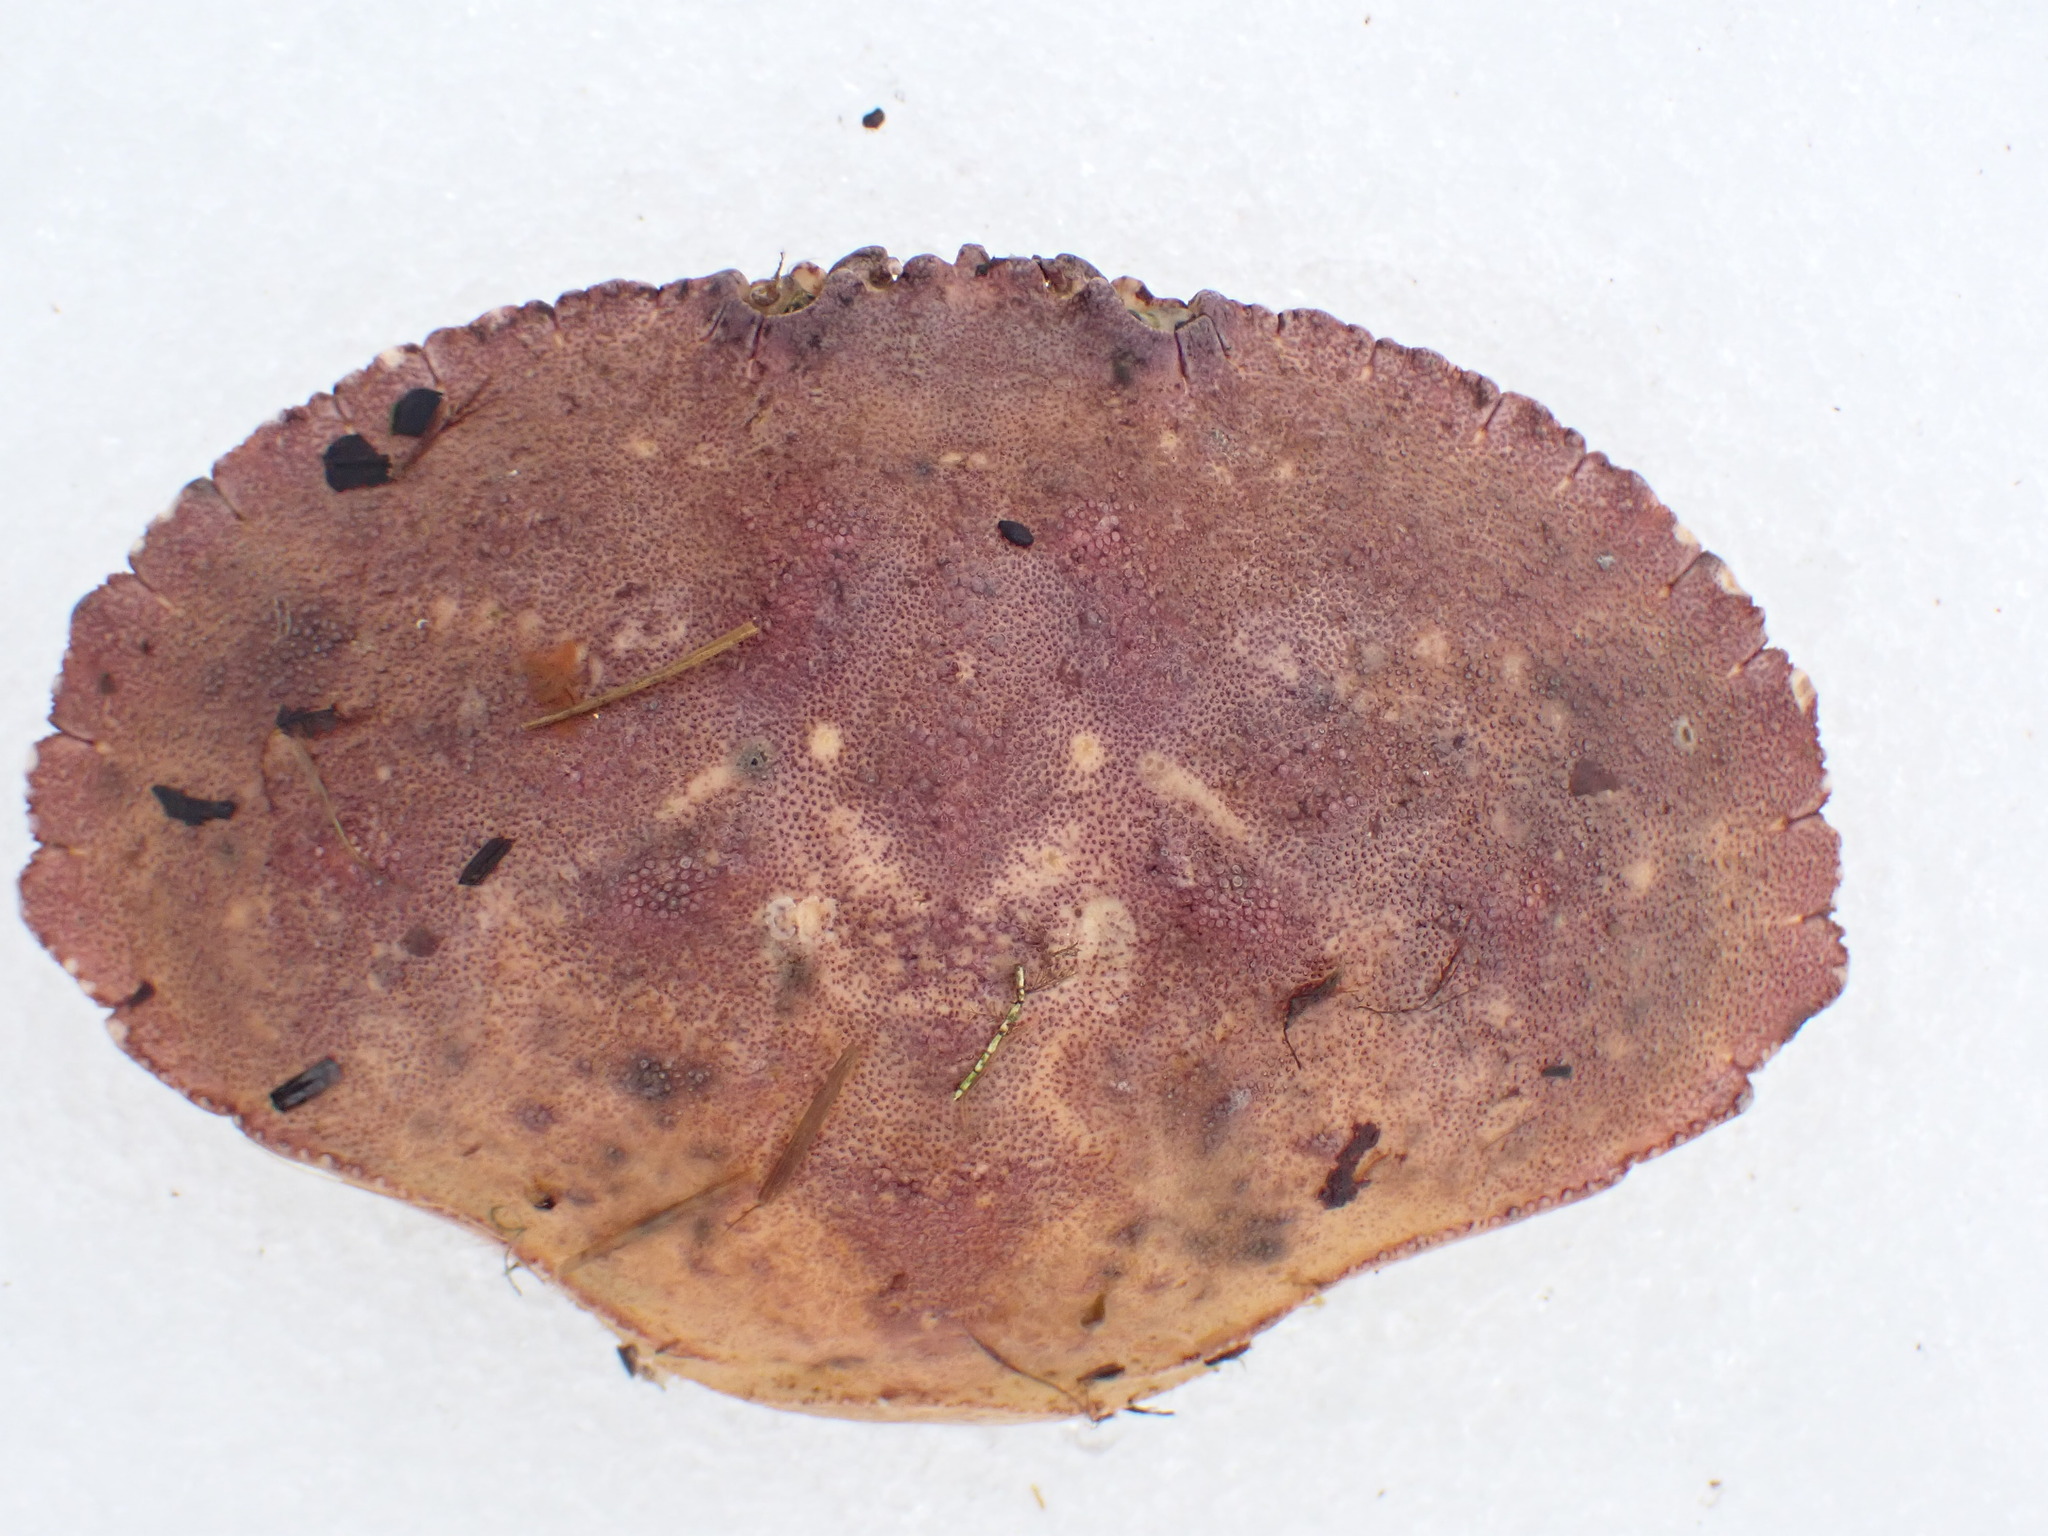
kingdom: Animalia
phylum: Arthropoda
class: Malacostraca
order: Decapoda
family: Cancridae
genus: Cancer
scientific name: Cancer borealis
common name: Jonah crab
